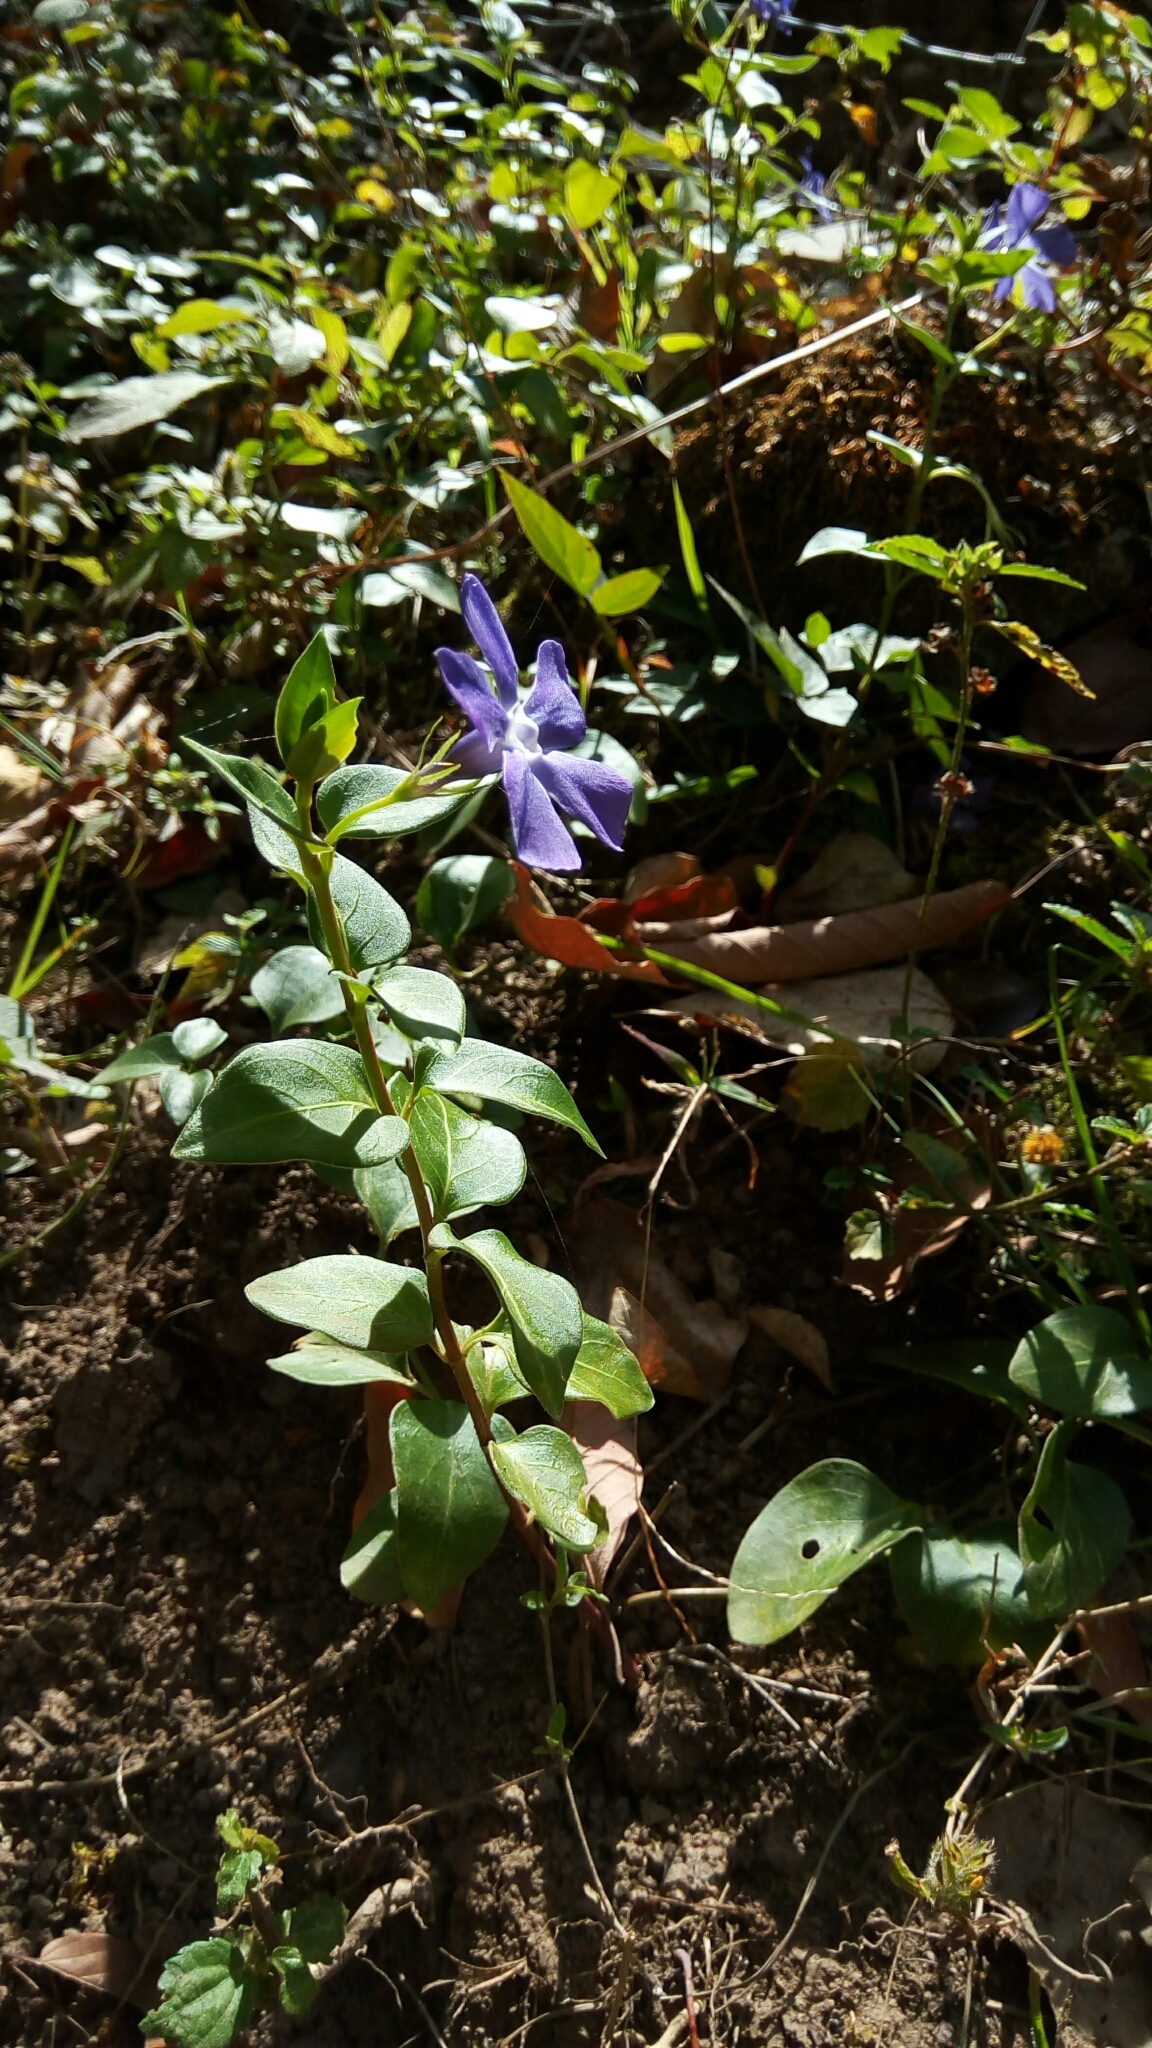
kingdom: Plantae
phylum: Tracheophyta
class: Magnoliopsida
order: Gentianales
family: Apocynaceae
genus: Vinca
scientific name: Vinca major
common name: Greater periwinkle
